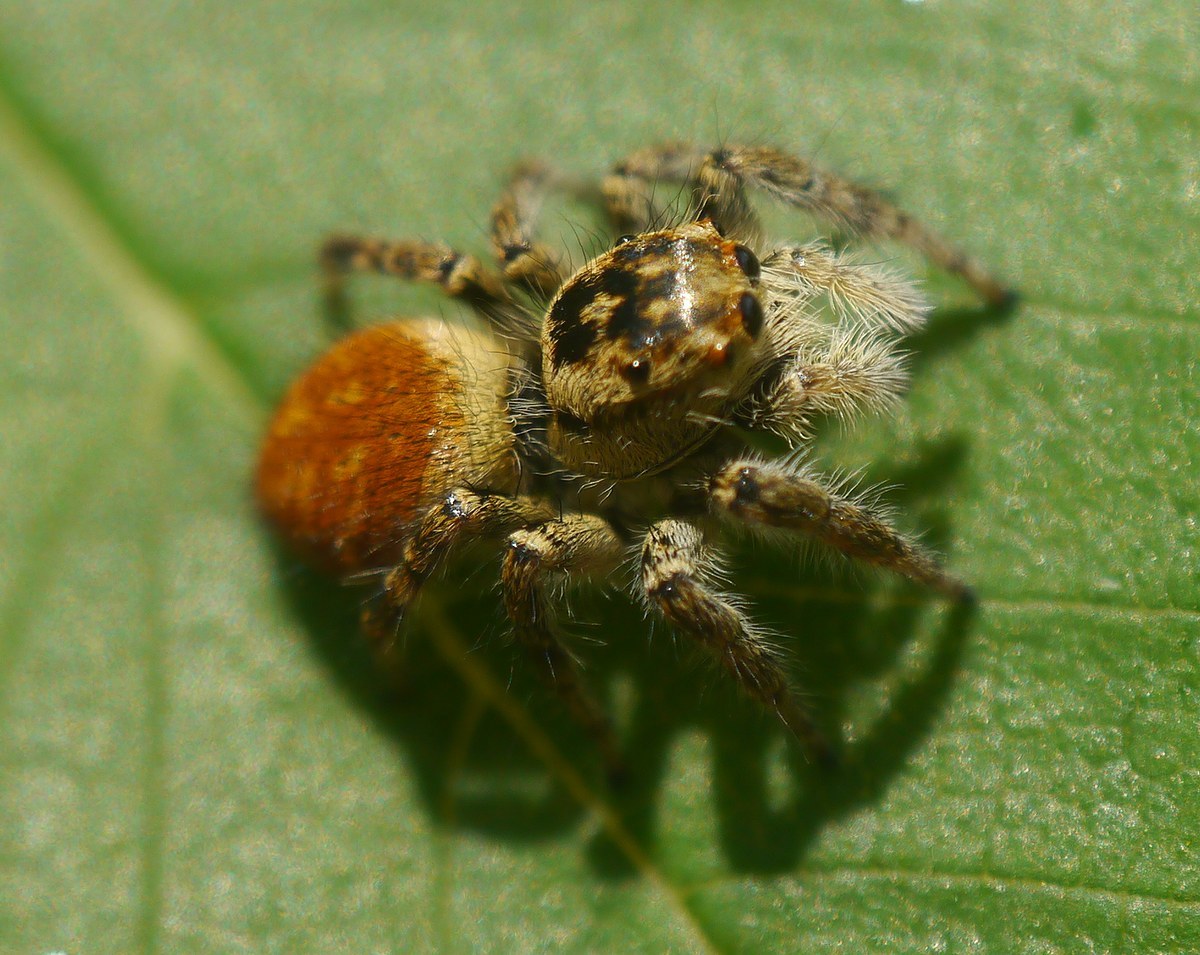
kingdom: Animalia
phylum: Arthropoda
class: Arachnida
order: Araneae
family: Salticidae
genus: Carrhotus
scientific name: Carrhotus xanthogramma
